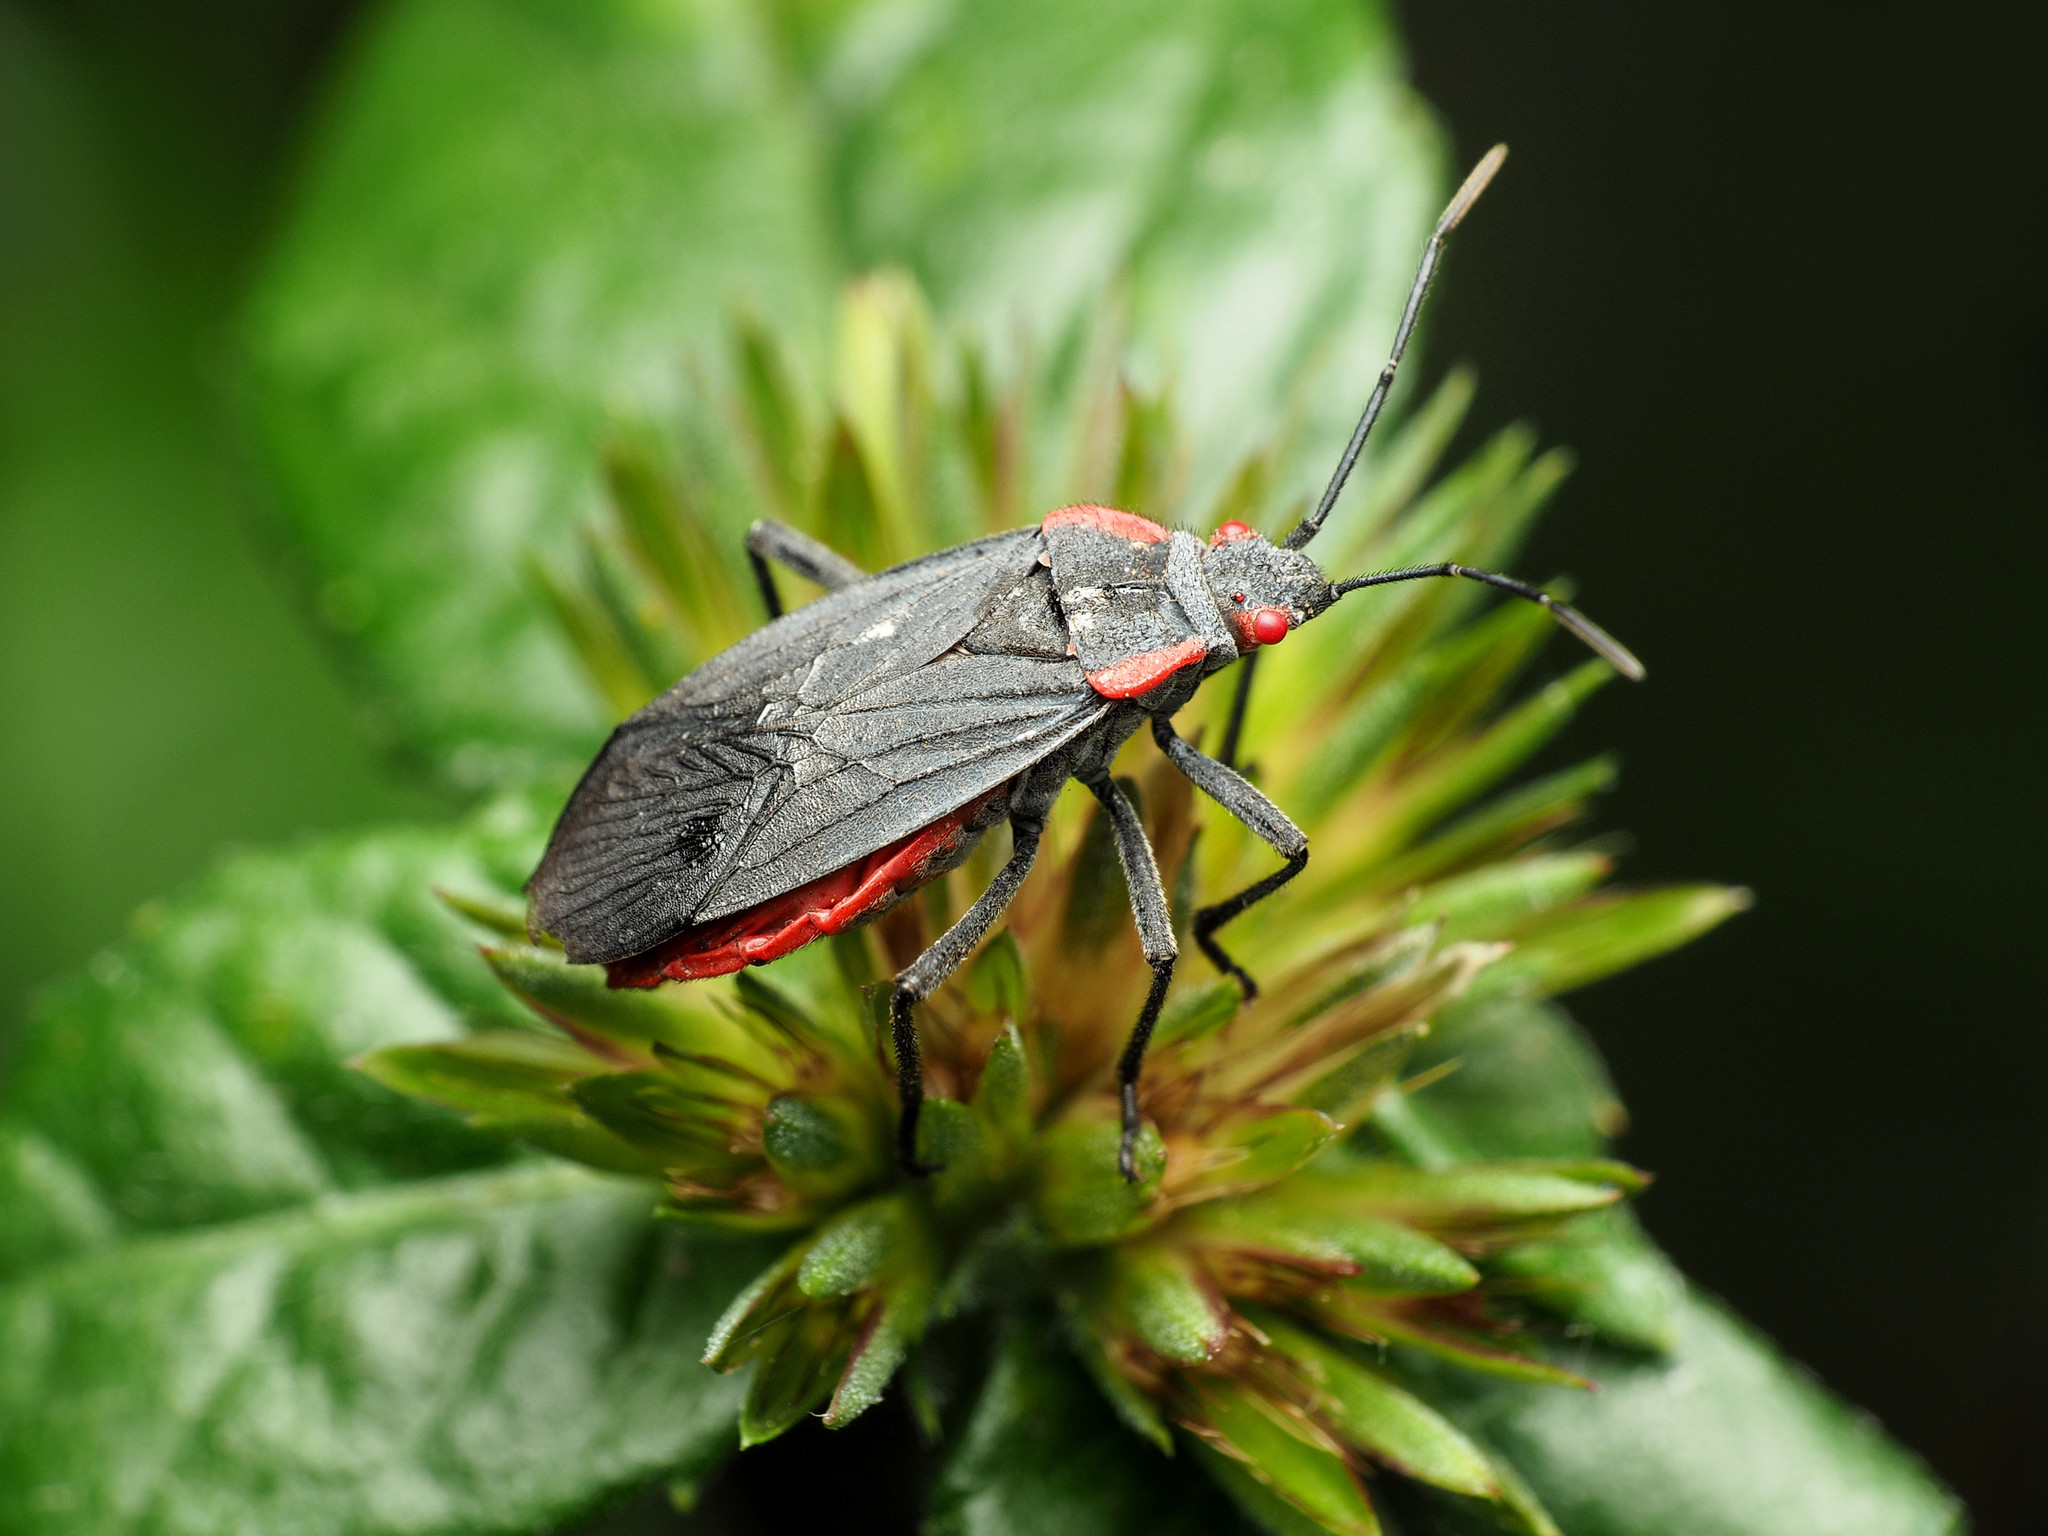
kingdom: Animalia
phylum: Arthropoda
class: Insecta
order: Hemiptera
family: Rhopalidae
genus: Jadera
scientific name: Jadera haematoloma
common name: Red-shouldered bug
